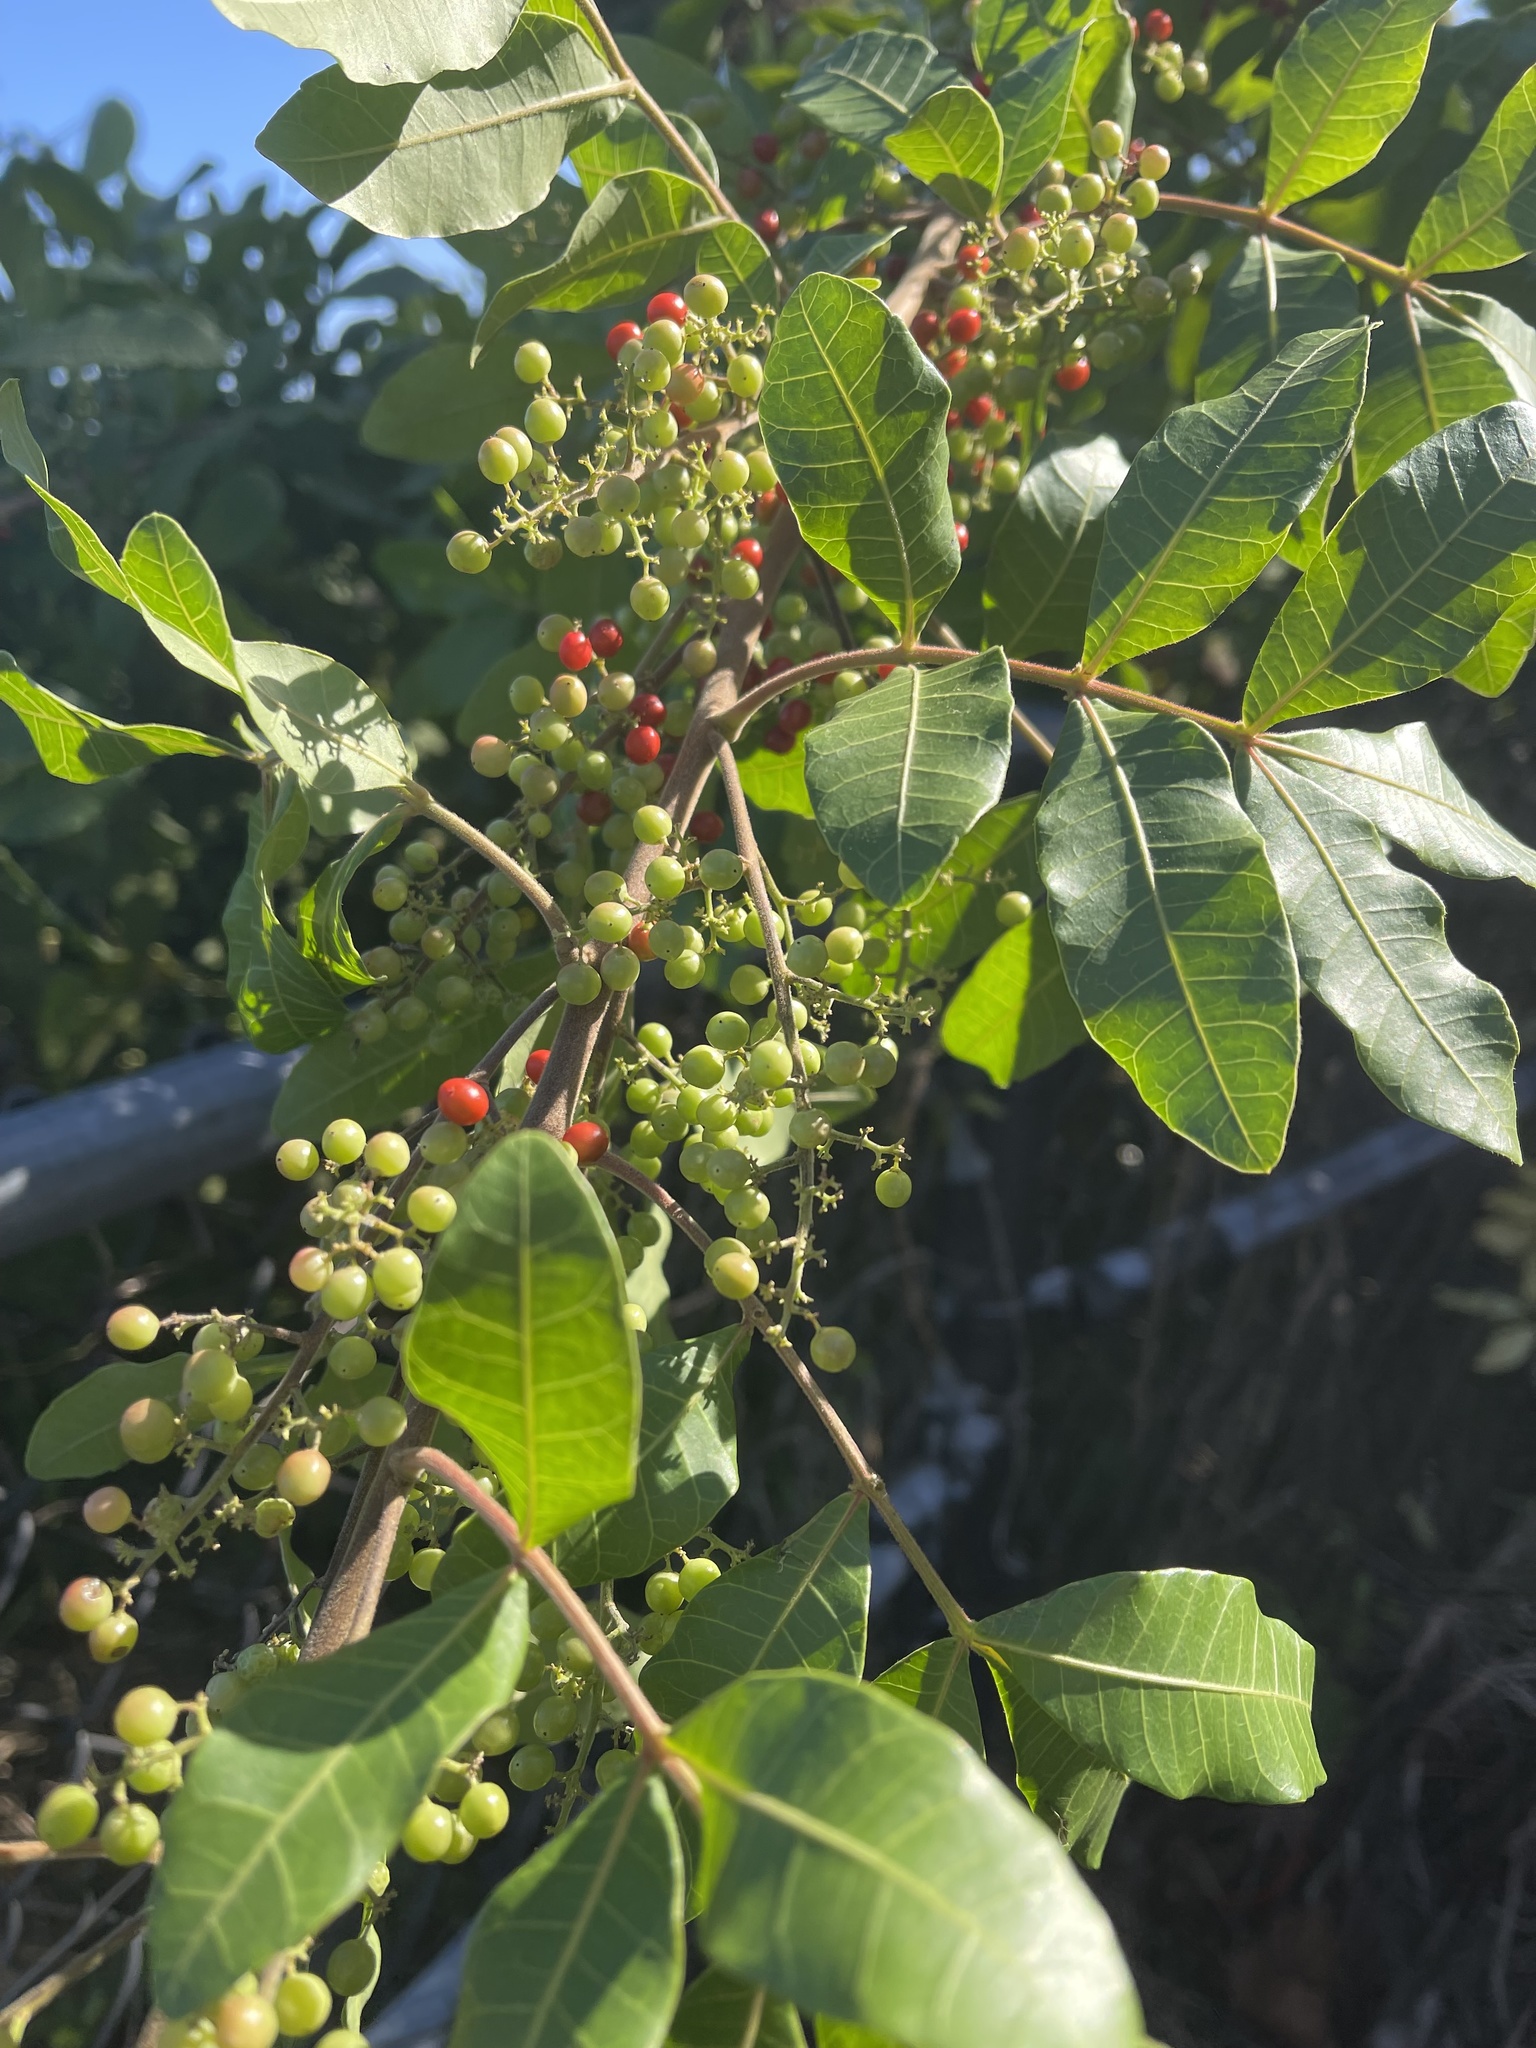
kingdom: Plantae
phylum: Tracheophyta
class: Magnoliopsida
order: Sapindales
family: Anacardiaceae
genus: Schinus
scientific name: Schinus terebinthifolia
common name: Brazilian peppertree
